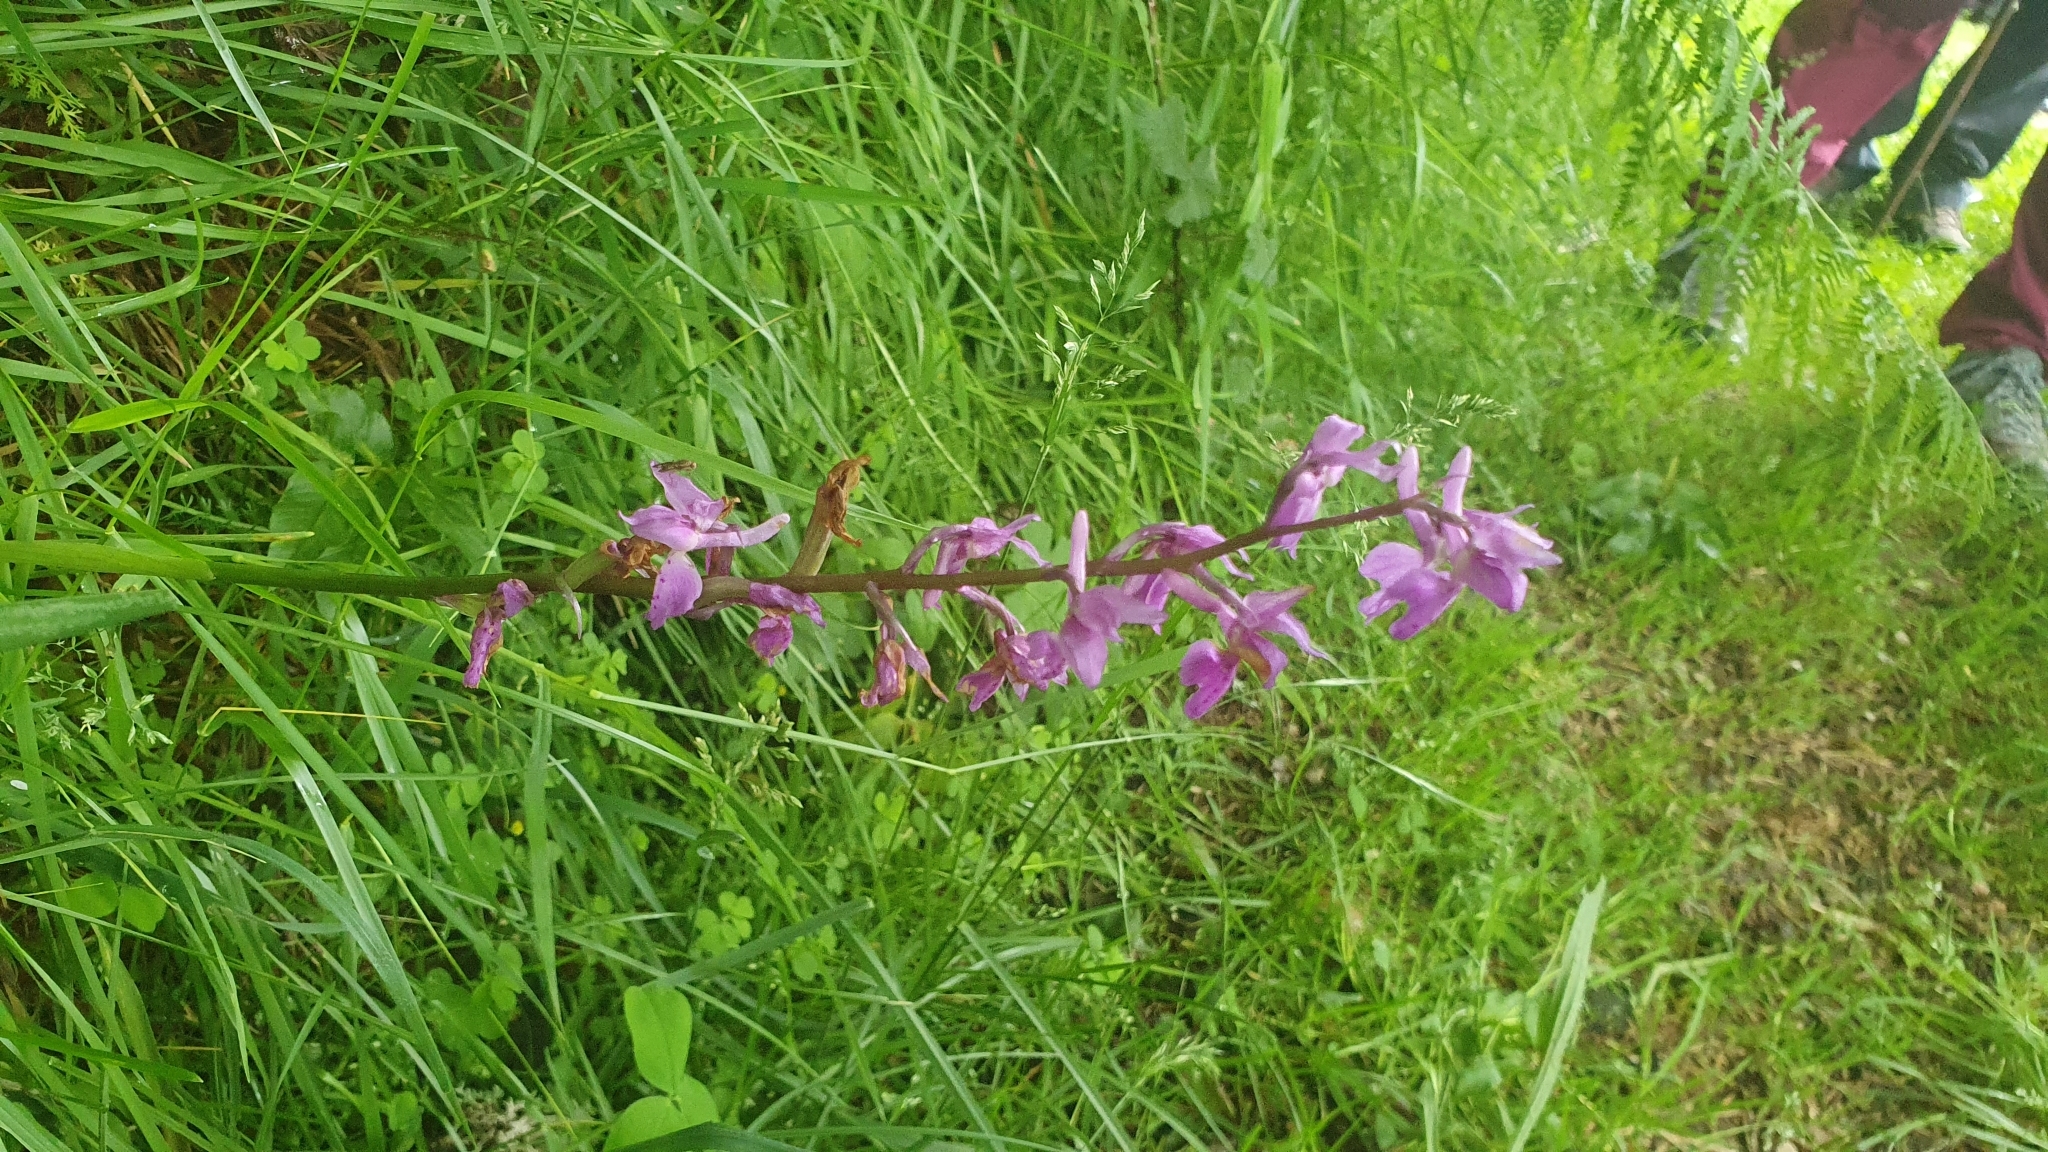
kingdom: Plantae
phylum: Tracheophyta
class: Liliopsida
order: Asparagales
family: Orchidaceae
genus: Orchis
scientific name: Orchis mascula
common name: Early-purple orchid
